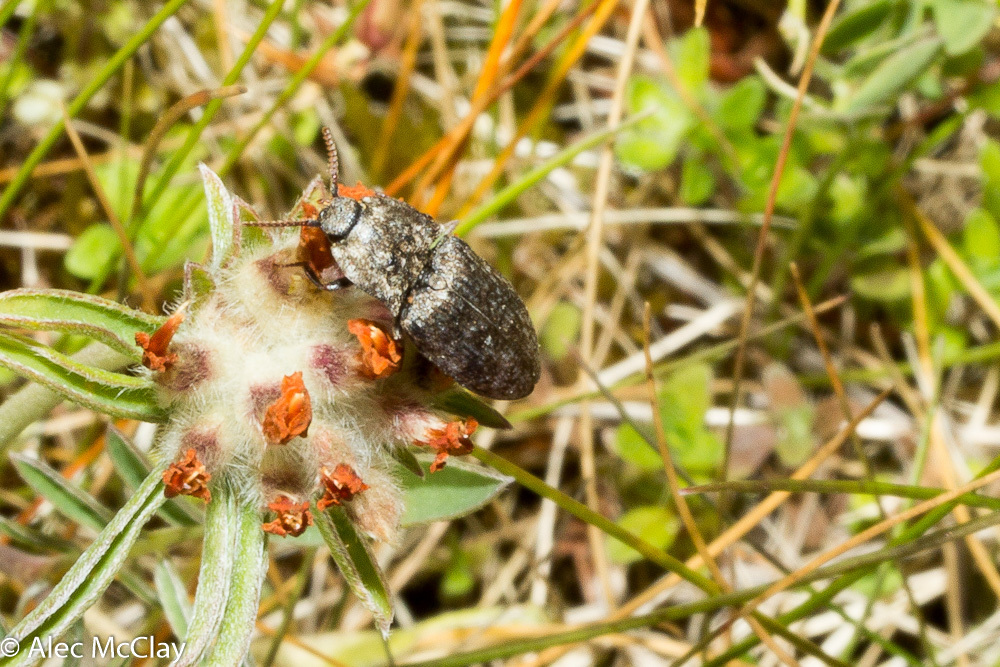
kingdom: Animalia
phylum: Arthropoda
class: Insecta
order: Coleoptera
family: Elateridae
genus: Agrypnus
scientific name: Agrypnus murinus
